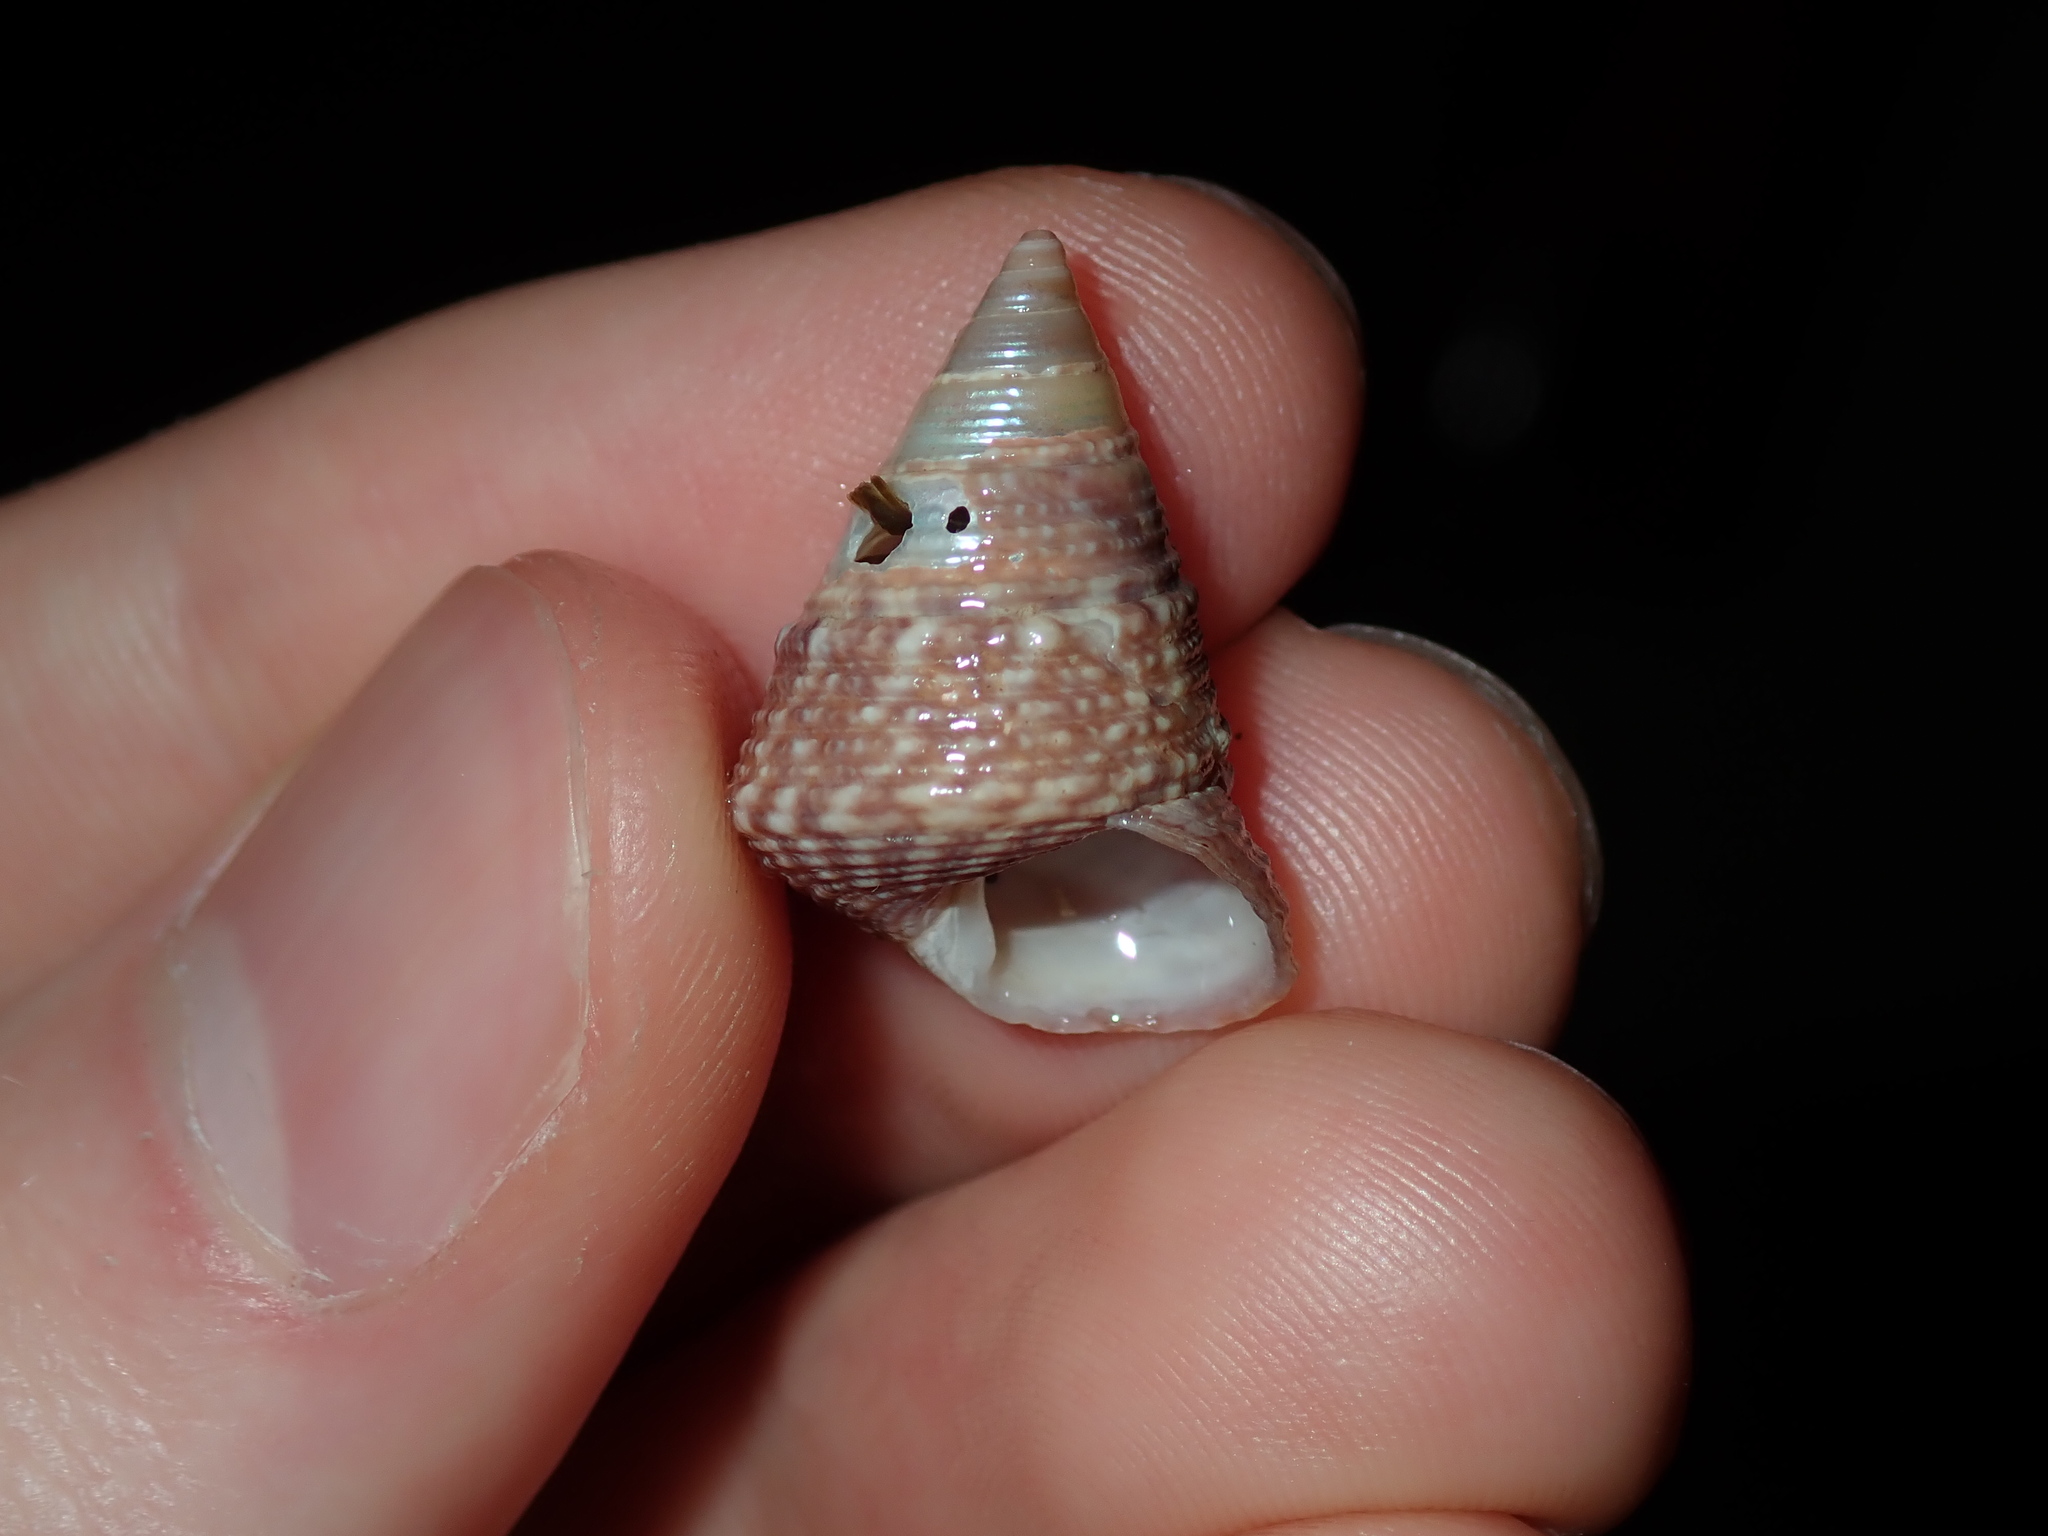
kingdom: Animalia
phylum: Mollusca
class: Gastropoda
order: Trochida
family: Trochidae
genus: Calthalotia
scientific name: Calthalotia fragum
